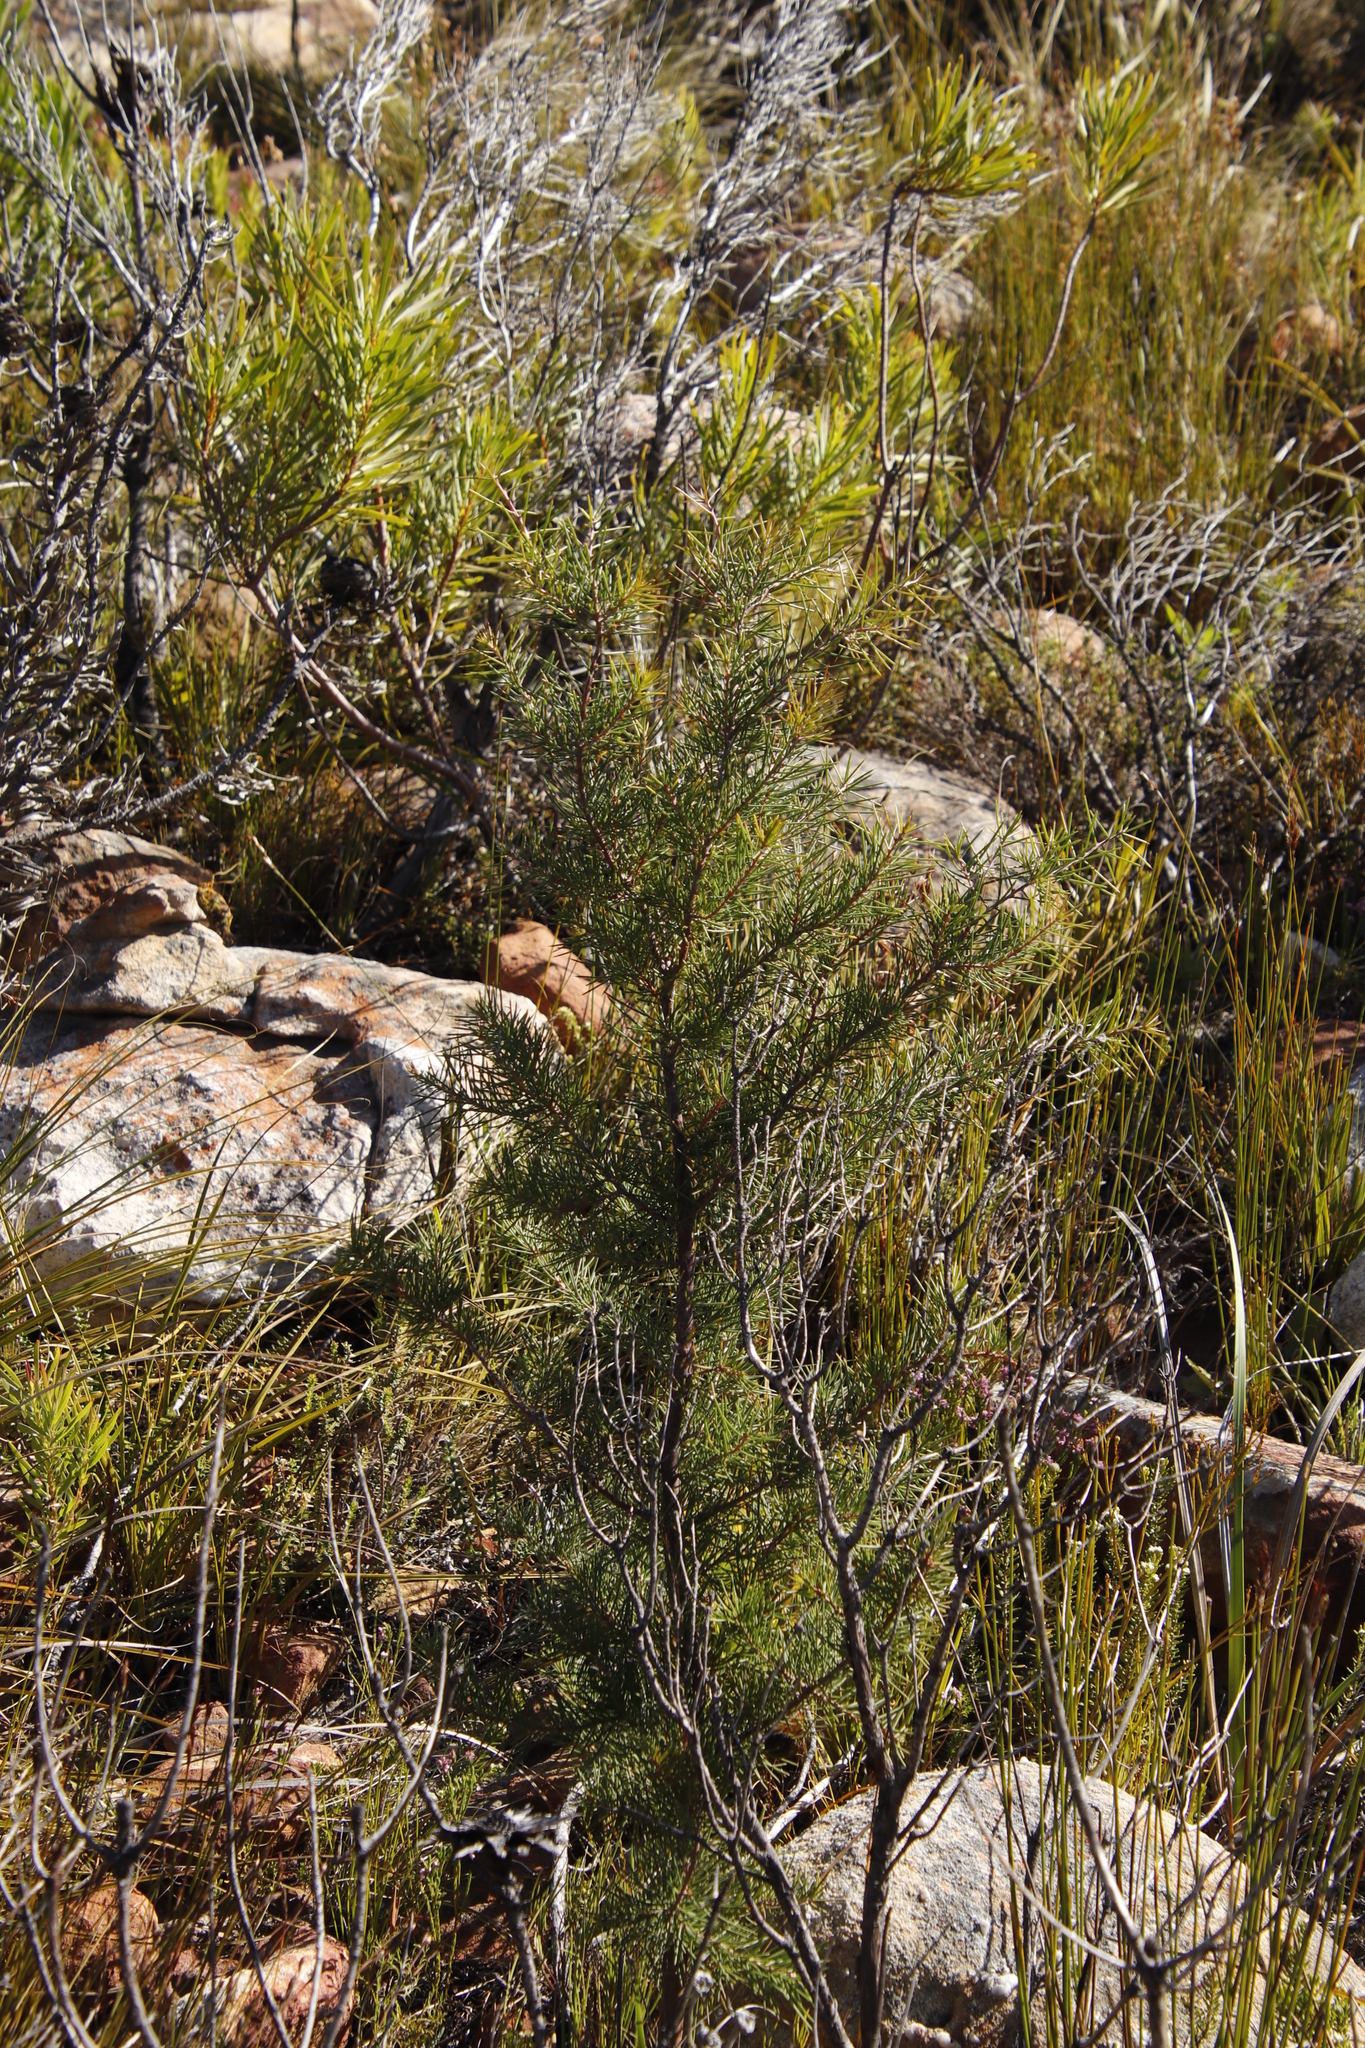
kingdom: Plantae
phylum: Tracheophyta
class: Magnoliopsida
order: Proteales
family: Proteaceae
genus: Hakea
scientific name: Hakea sericea
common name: Needle bush
